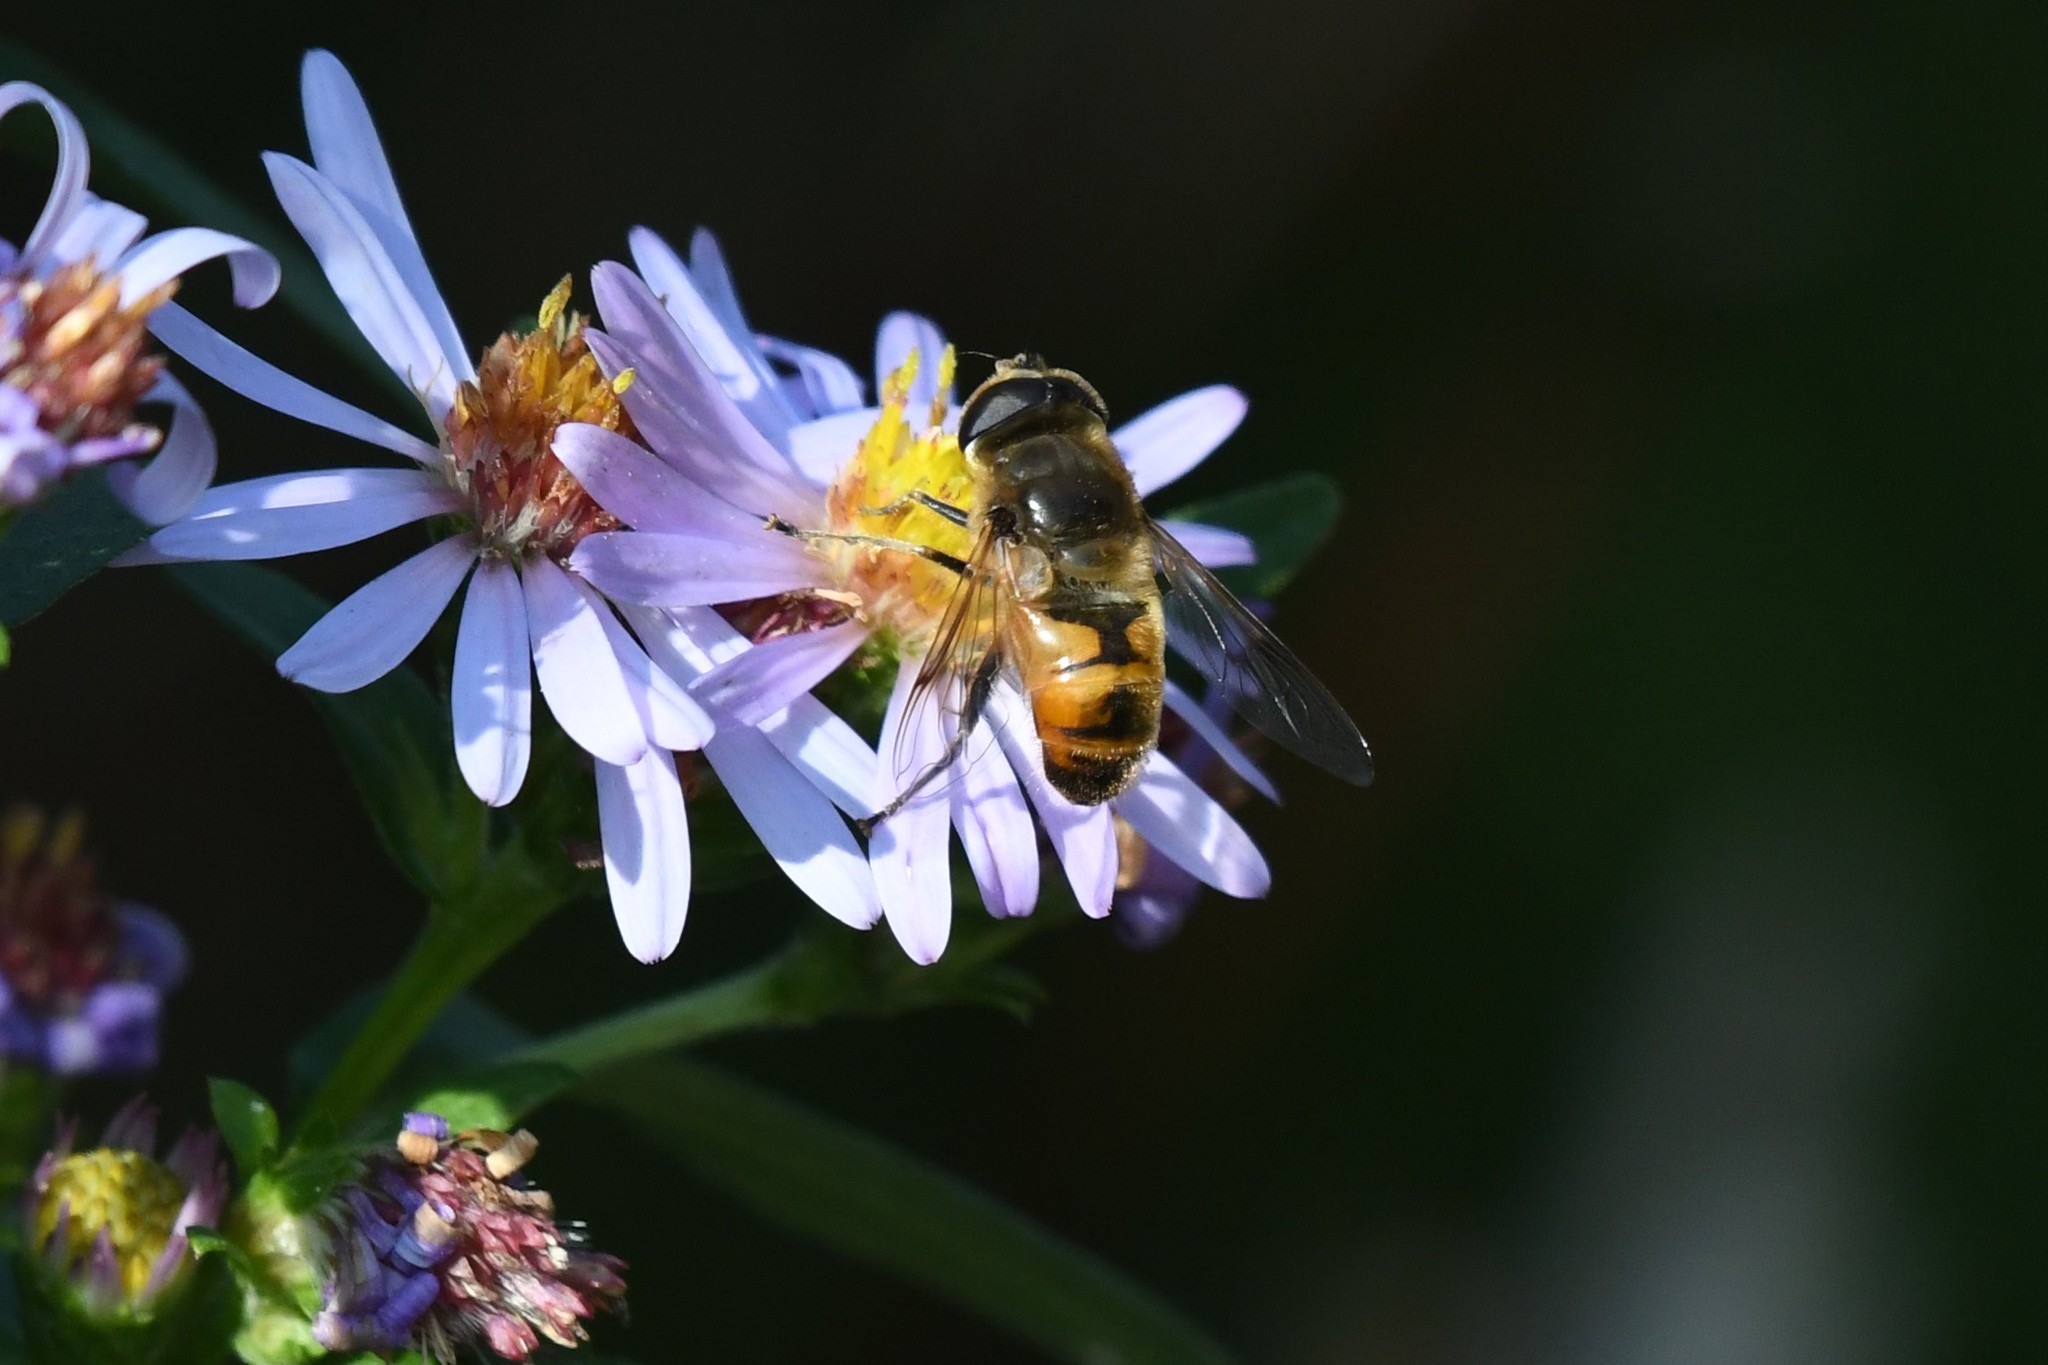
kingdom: Animalia
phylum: Arthropoda
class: Insecta
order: Diptera
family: Syrphidae
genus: Eristalis
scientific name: Eristalis tenax
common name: Drone fly
